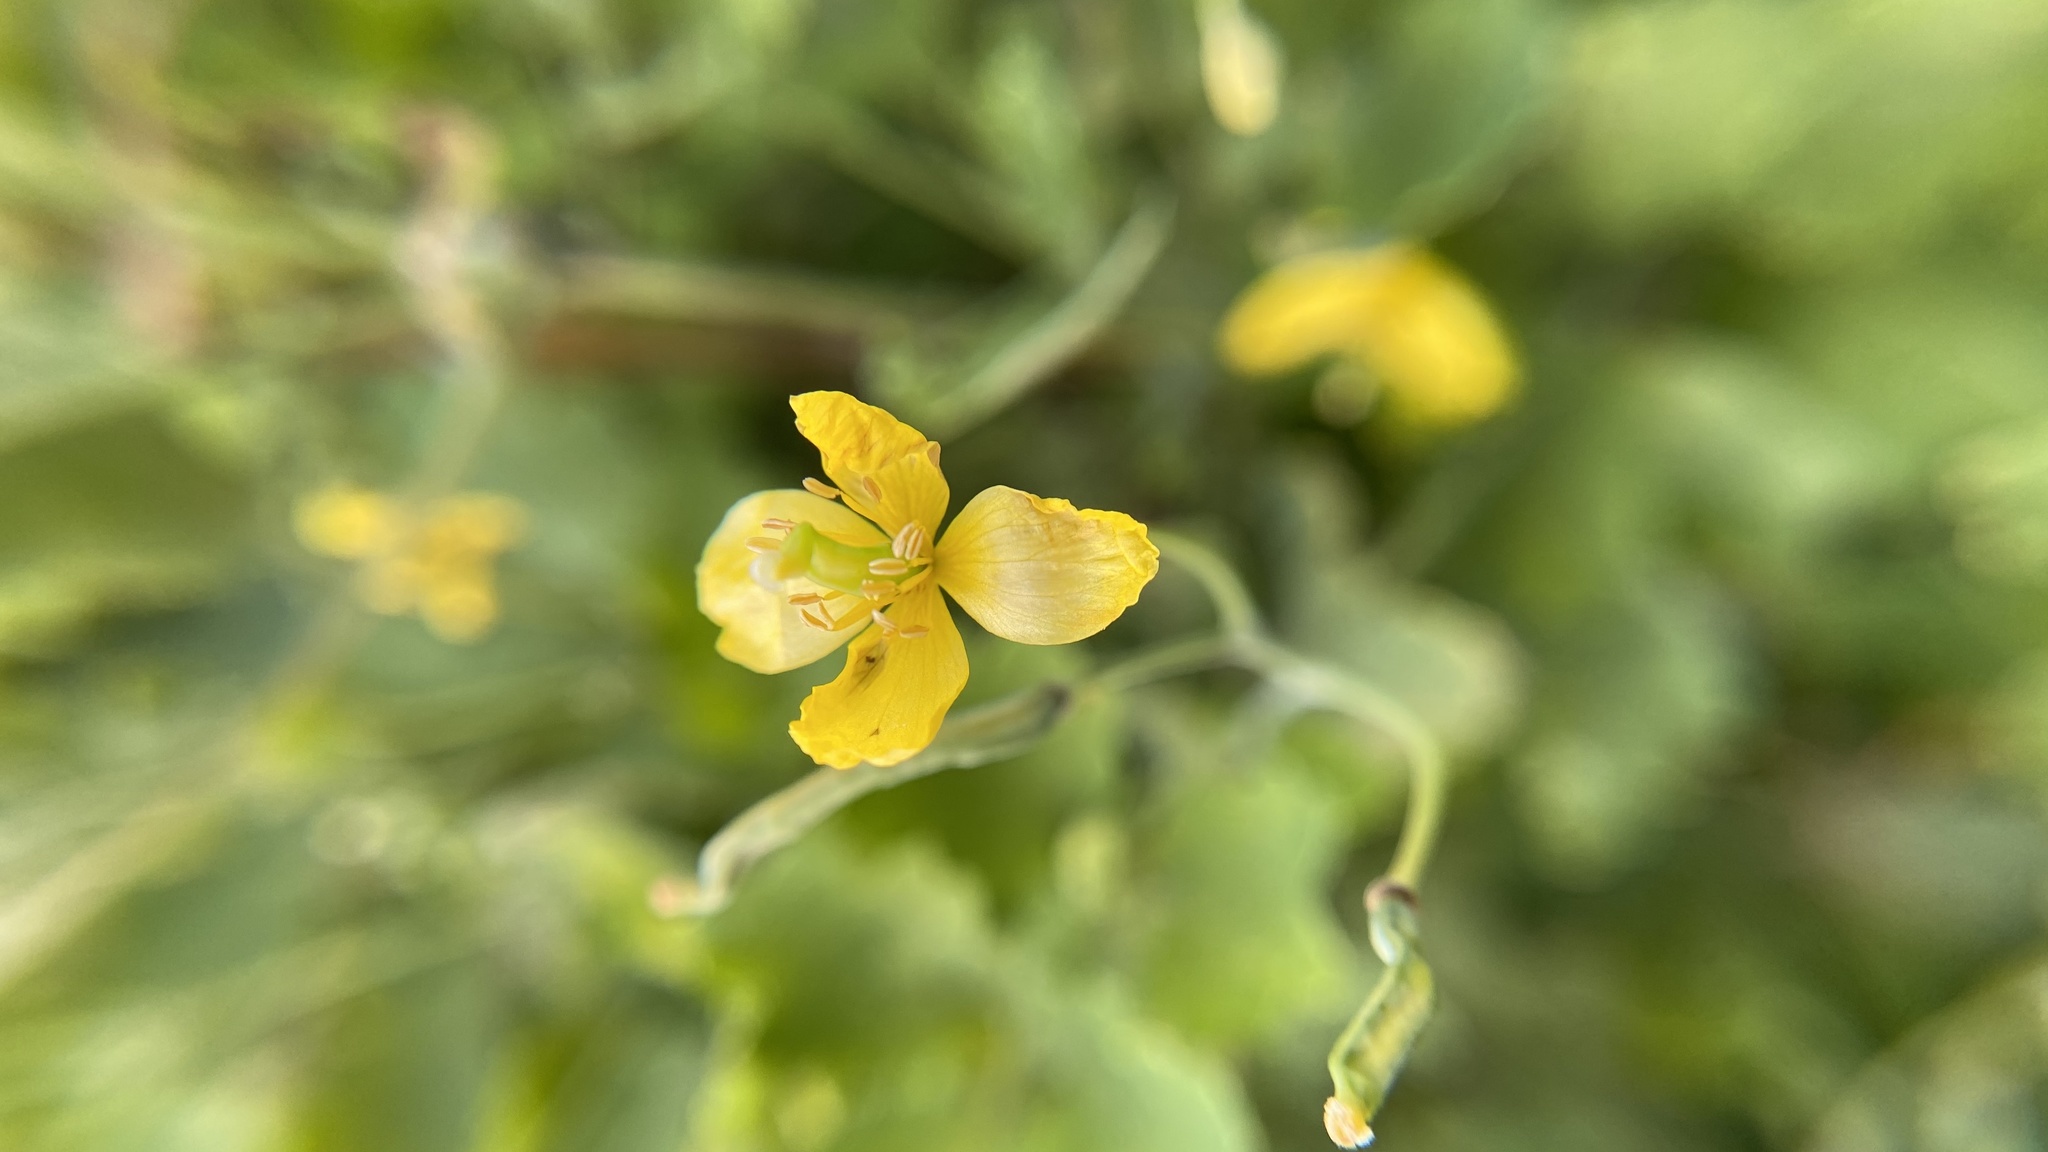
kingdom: Plantae
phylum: Tracheophyta
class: Magnoliopsida
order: Ranunculales
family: Papaveraceae
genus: Chelidonium
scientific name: Chelidonium majus
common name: Greater celandine
